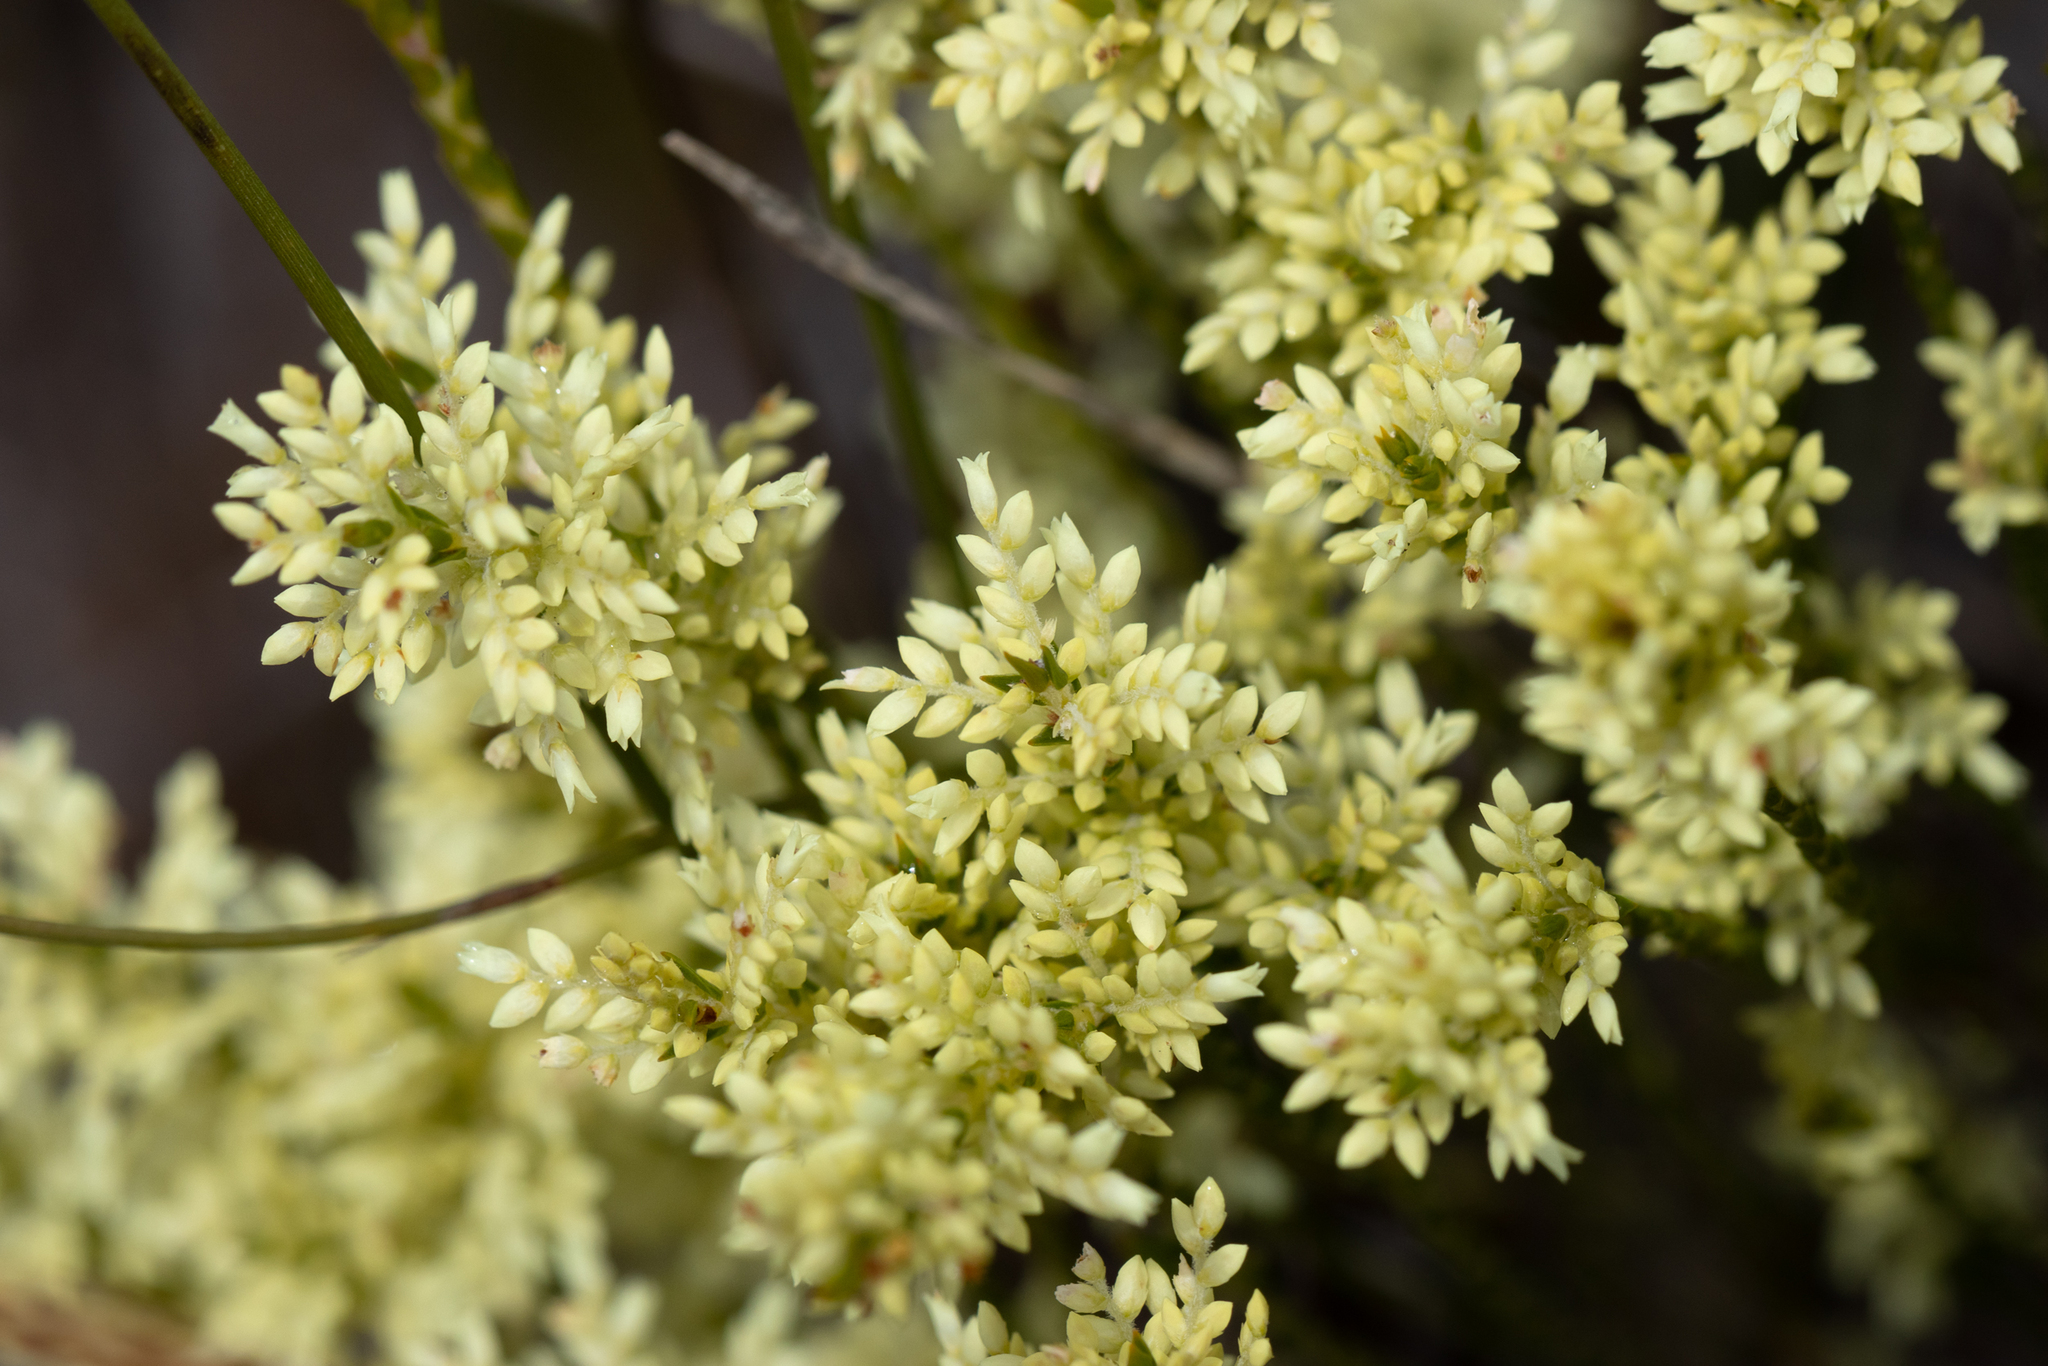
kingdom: Plantae
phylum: Tracheophyta
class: Magnoliopsida
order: Ericales
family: Ericaceae
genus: Oligarrhena
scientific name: Oligarrhena micrantha
